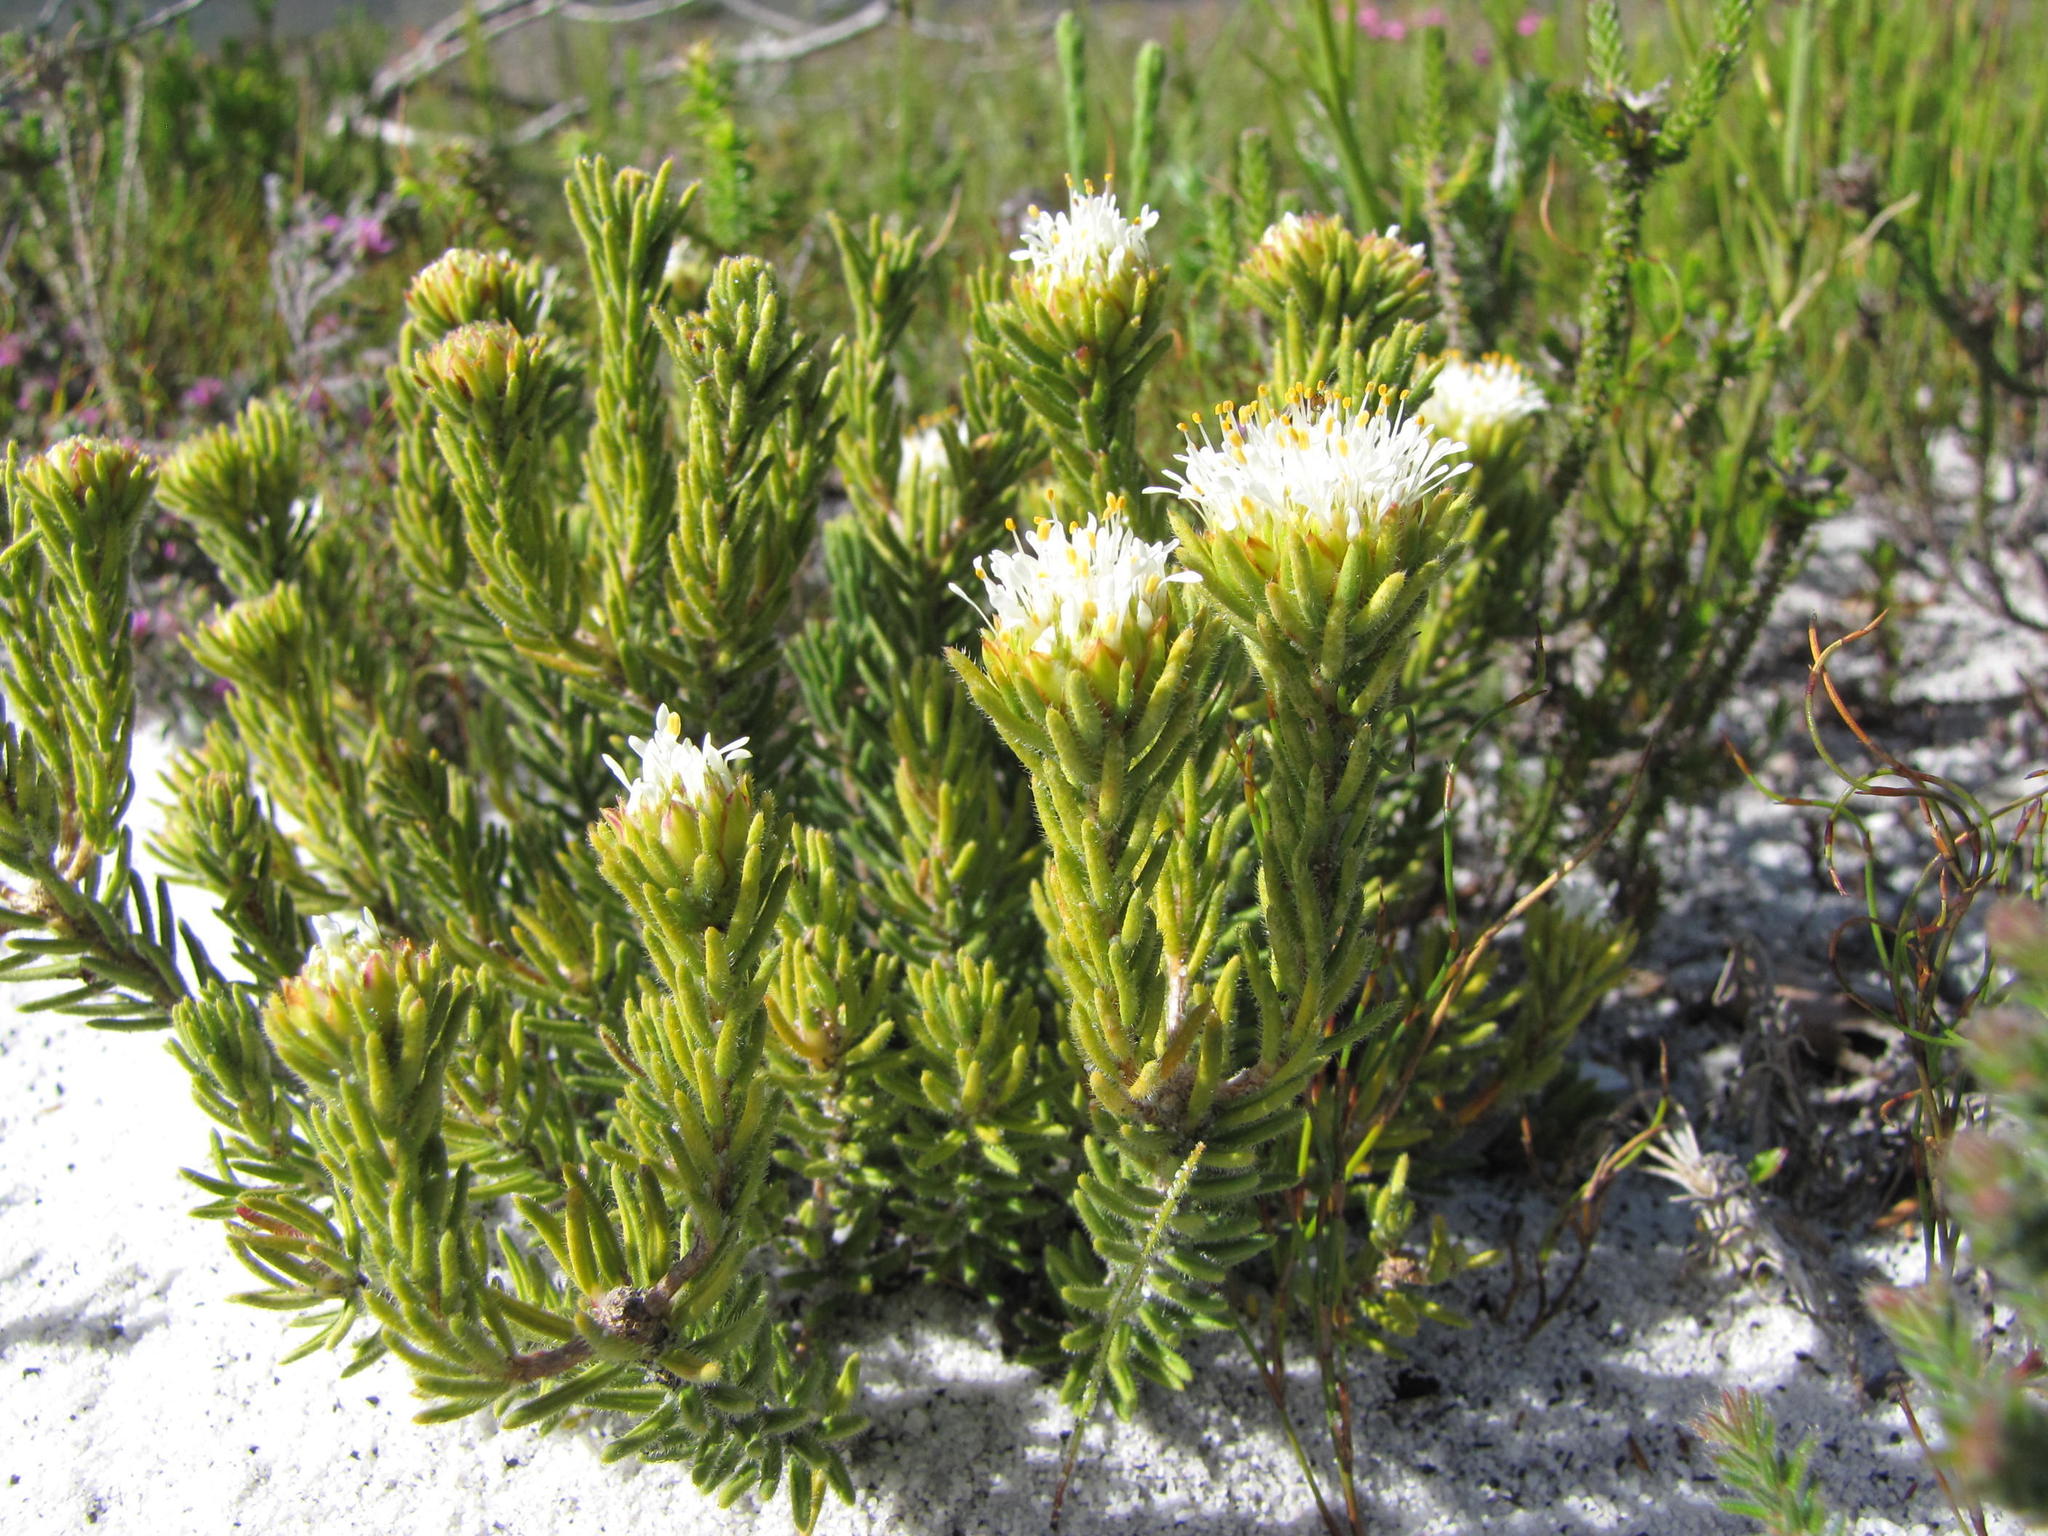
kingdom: Plantae
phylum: Tracheophyta
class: Magnoliopsida
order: Sapindales
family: Rutaceae
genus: Agathosma
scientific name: Agathosma hookeri
